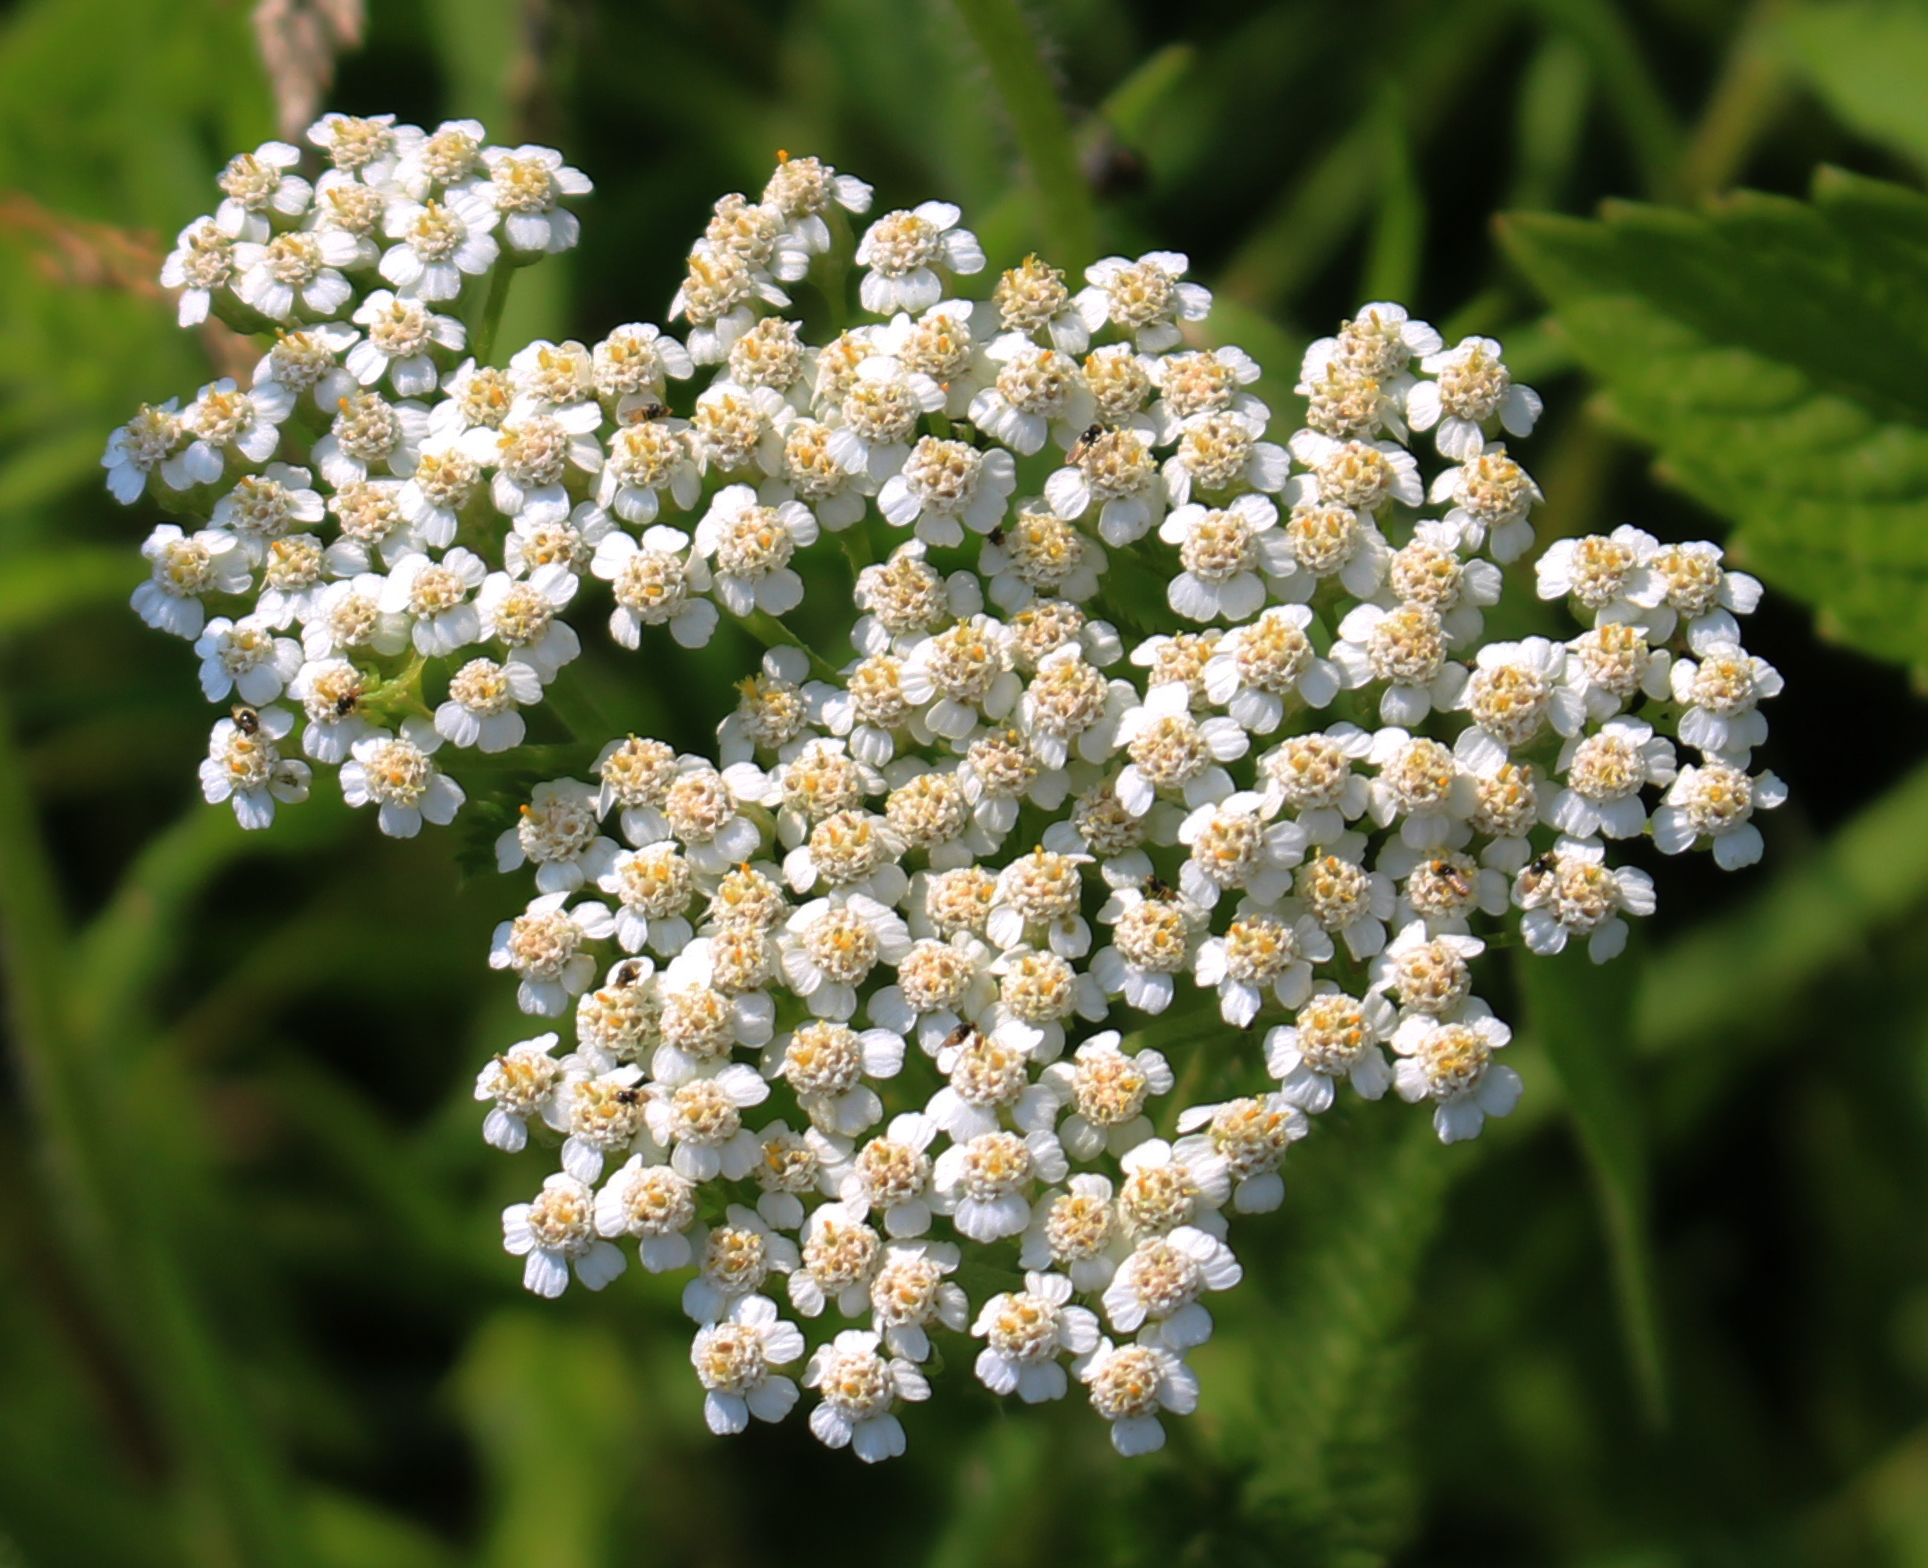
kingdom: Plantae
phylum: Tracheophyta
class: Magnoliopsida
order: Asterales
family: Asteraceae
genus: Achillea
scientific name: Achillea millefolium
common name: Yarrow
